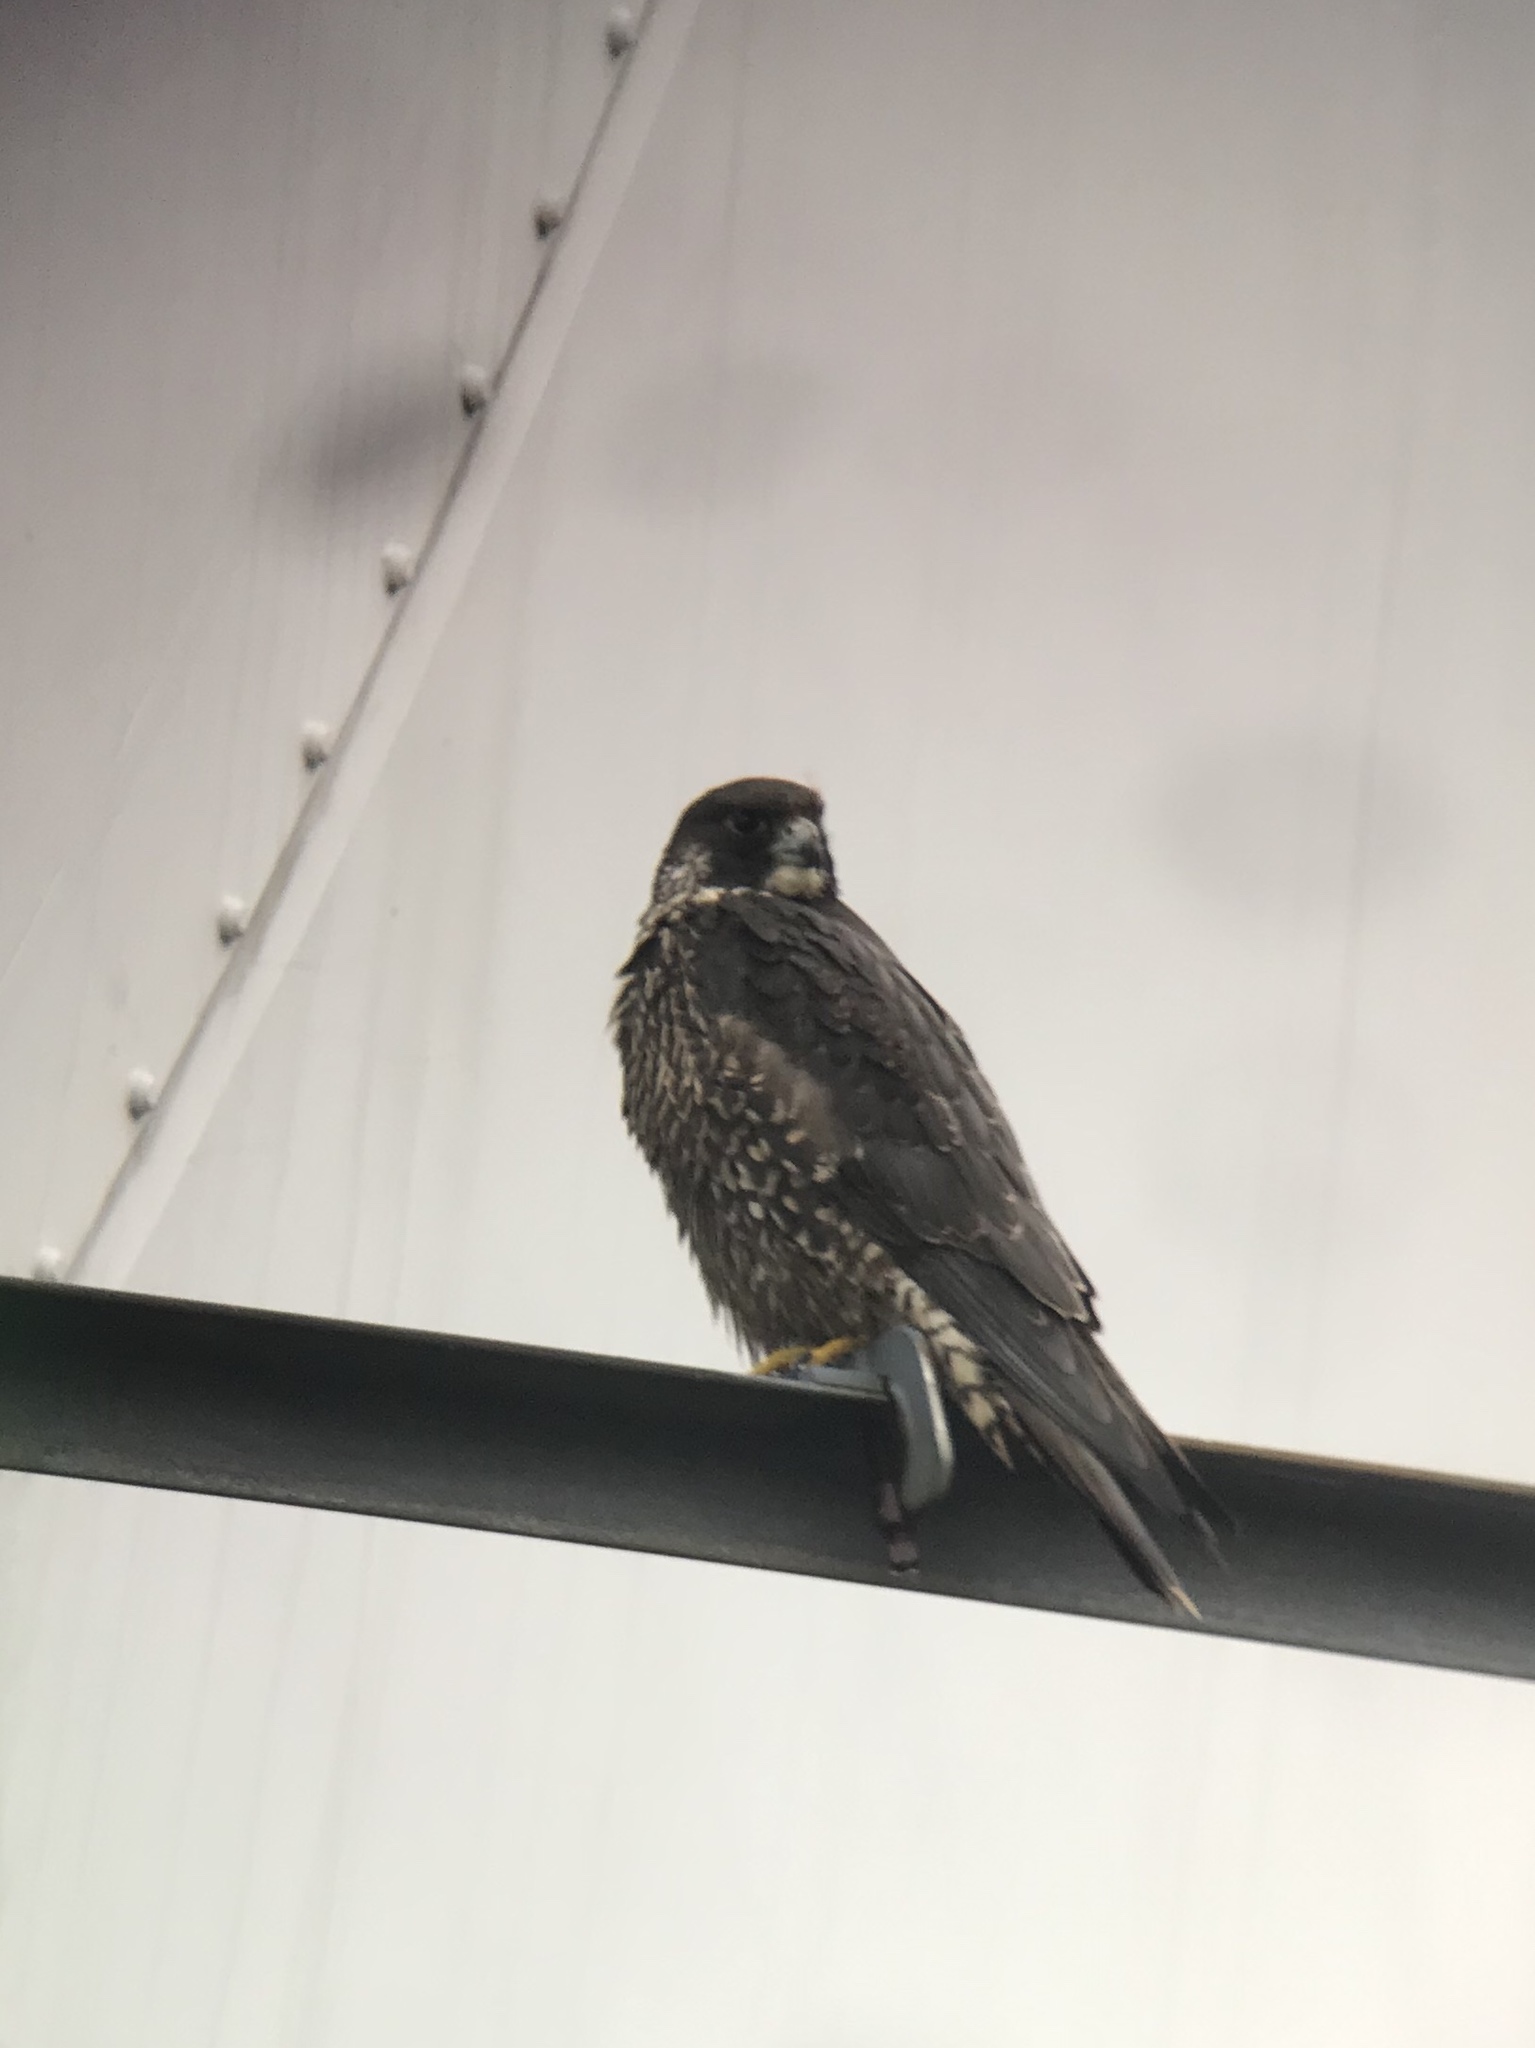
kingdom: Animalia
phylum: Chordata
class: Aves
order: Falconiformes
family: Falconidae
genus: Falco
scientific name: Falco peregrinus
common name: Peregrine falcon
